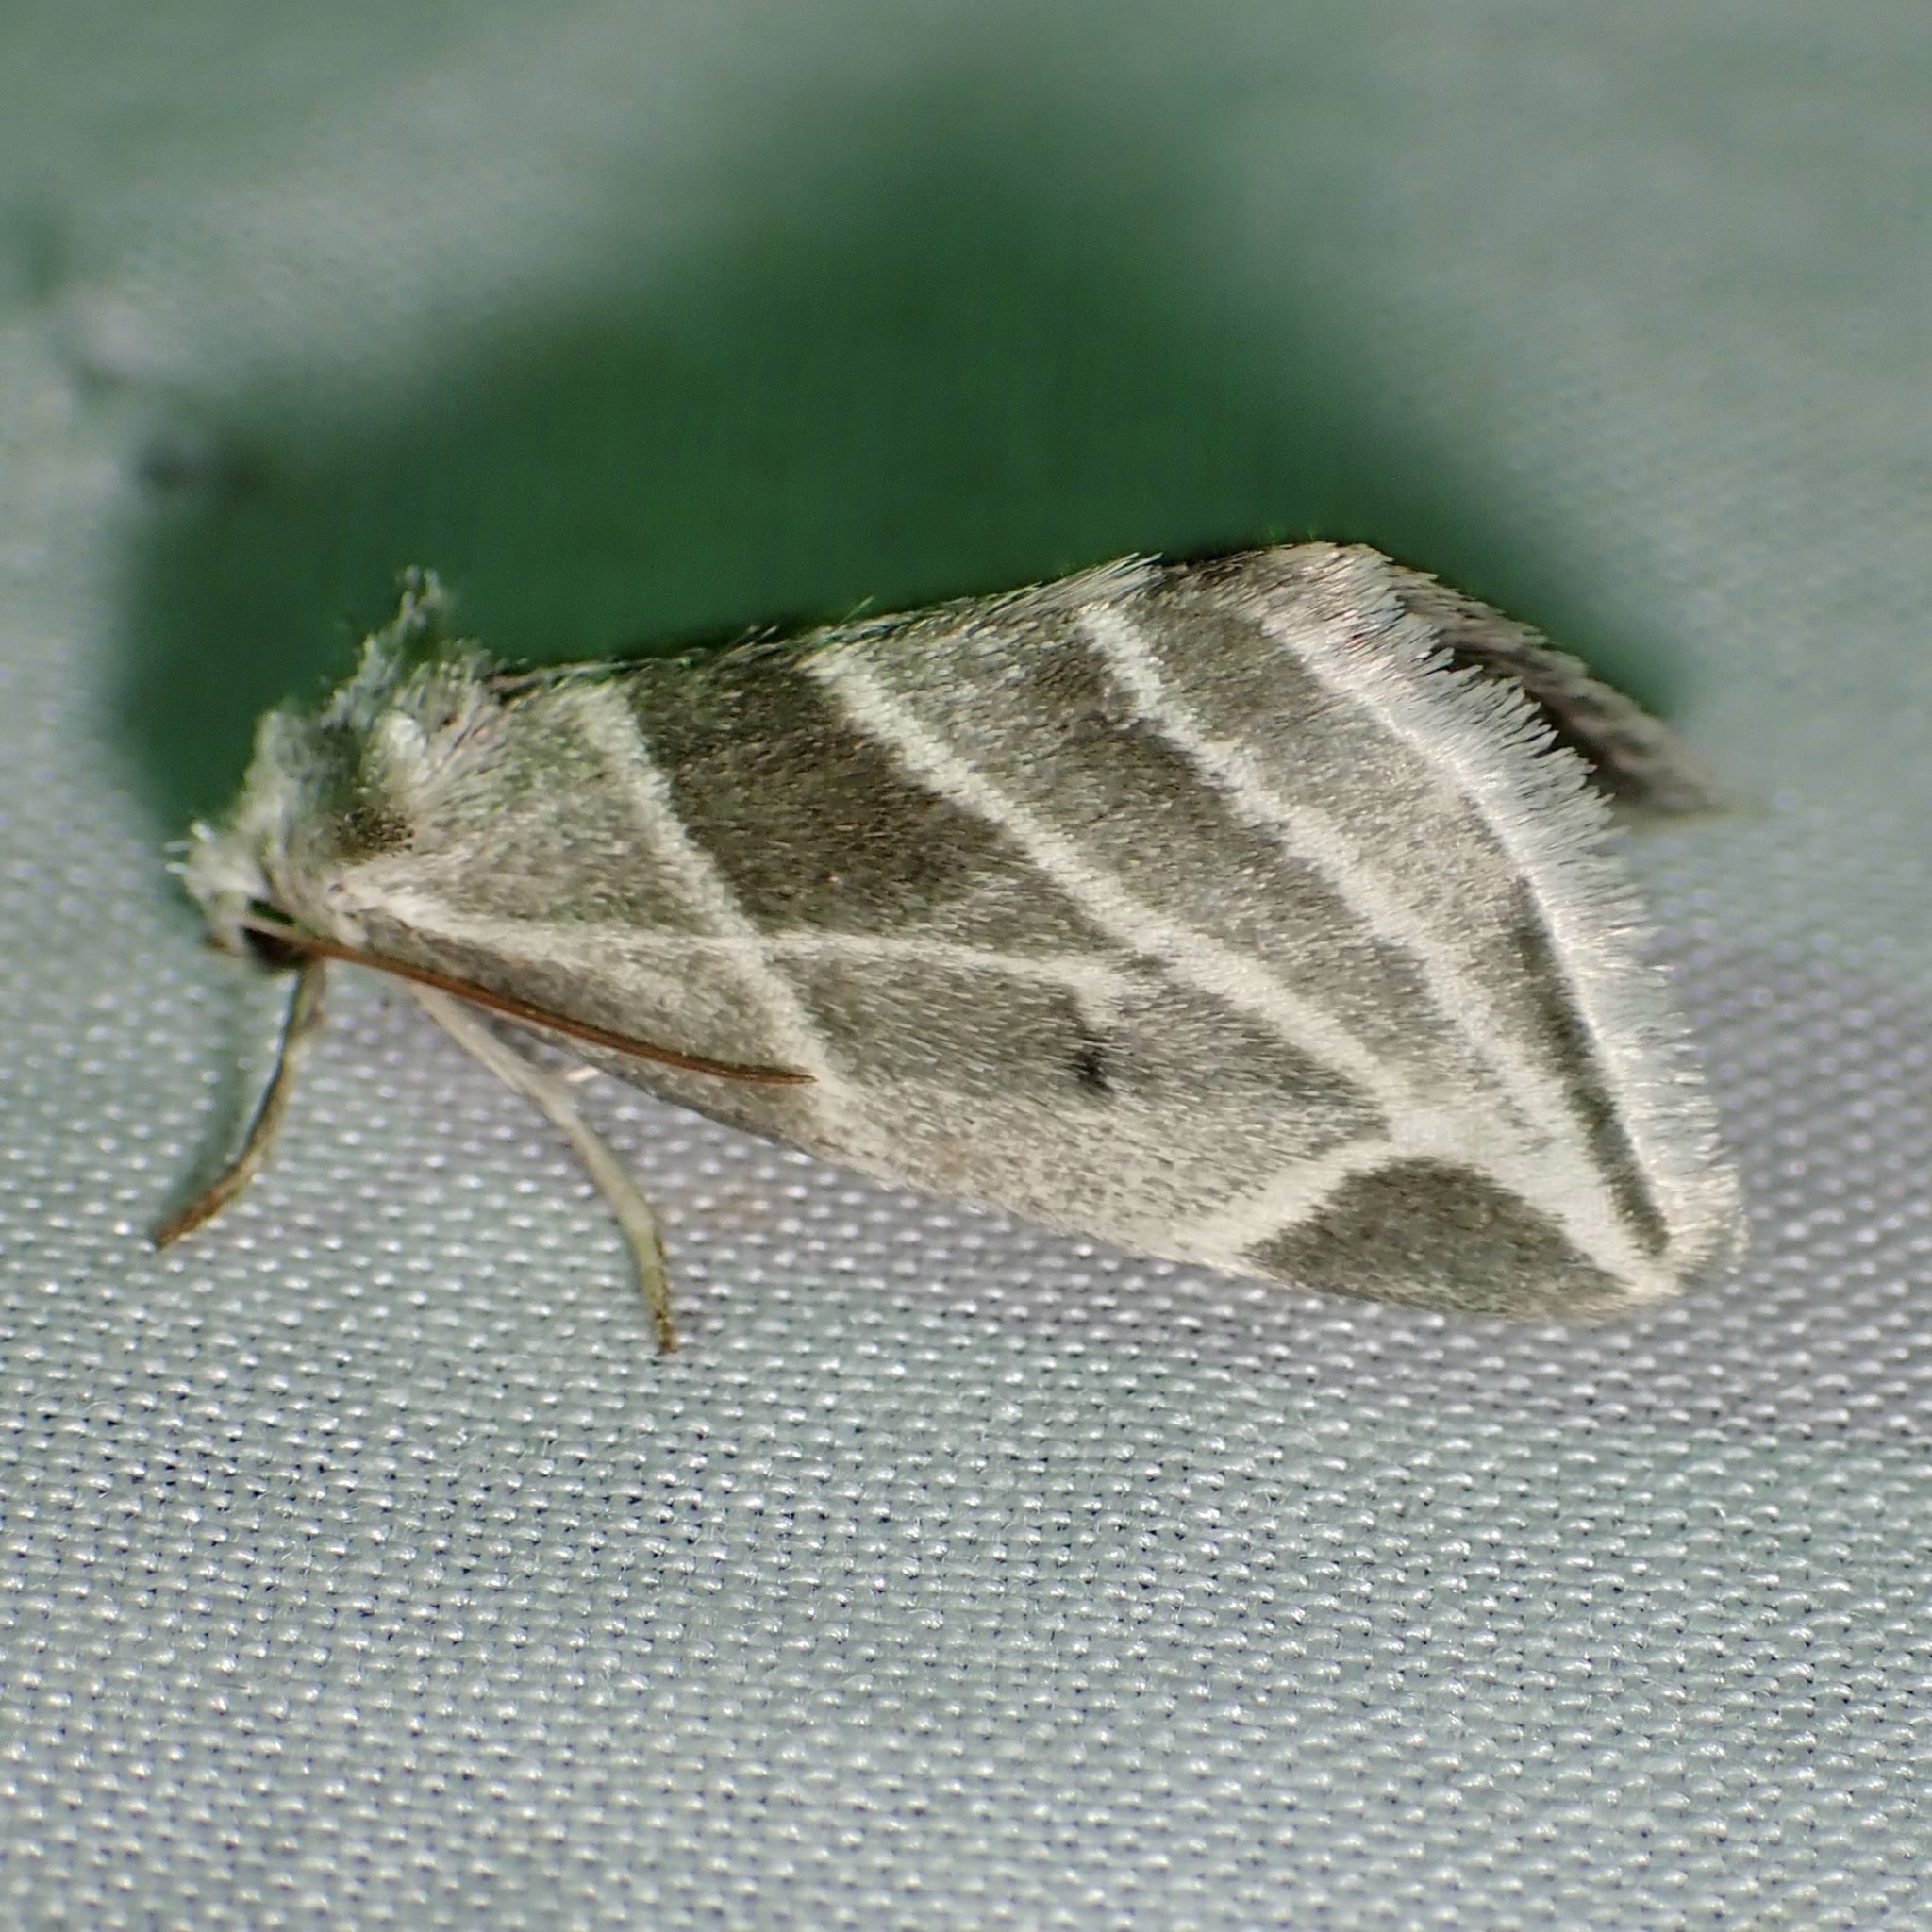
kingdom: Animalia
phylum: Arthropoda
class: Insecta
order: Lepidoptera
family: Noctuidae
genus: Plagiomimicus
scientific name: Plagiomimicus tepperi
